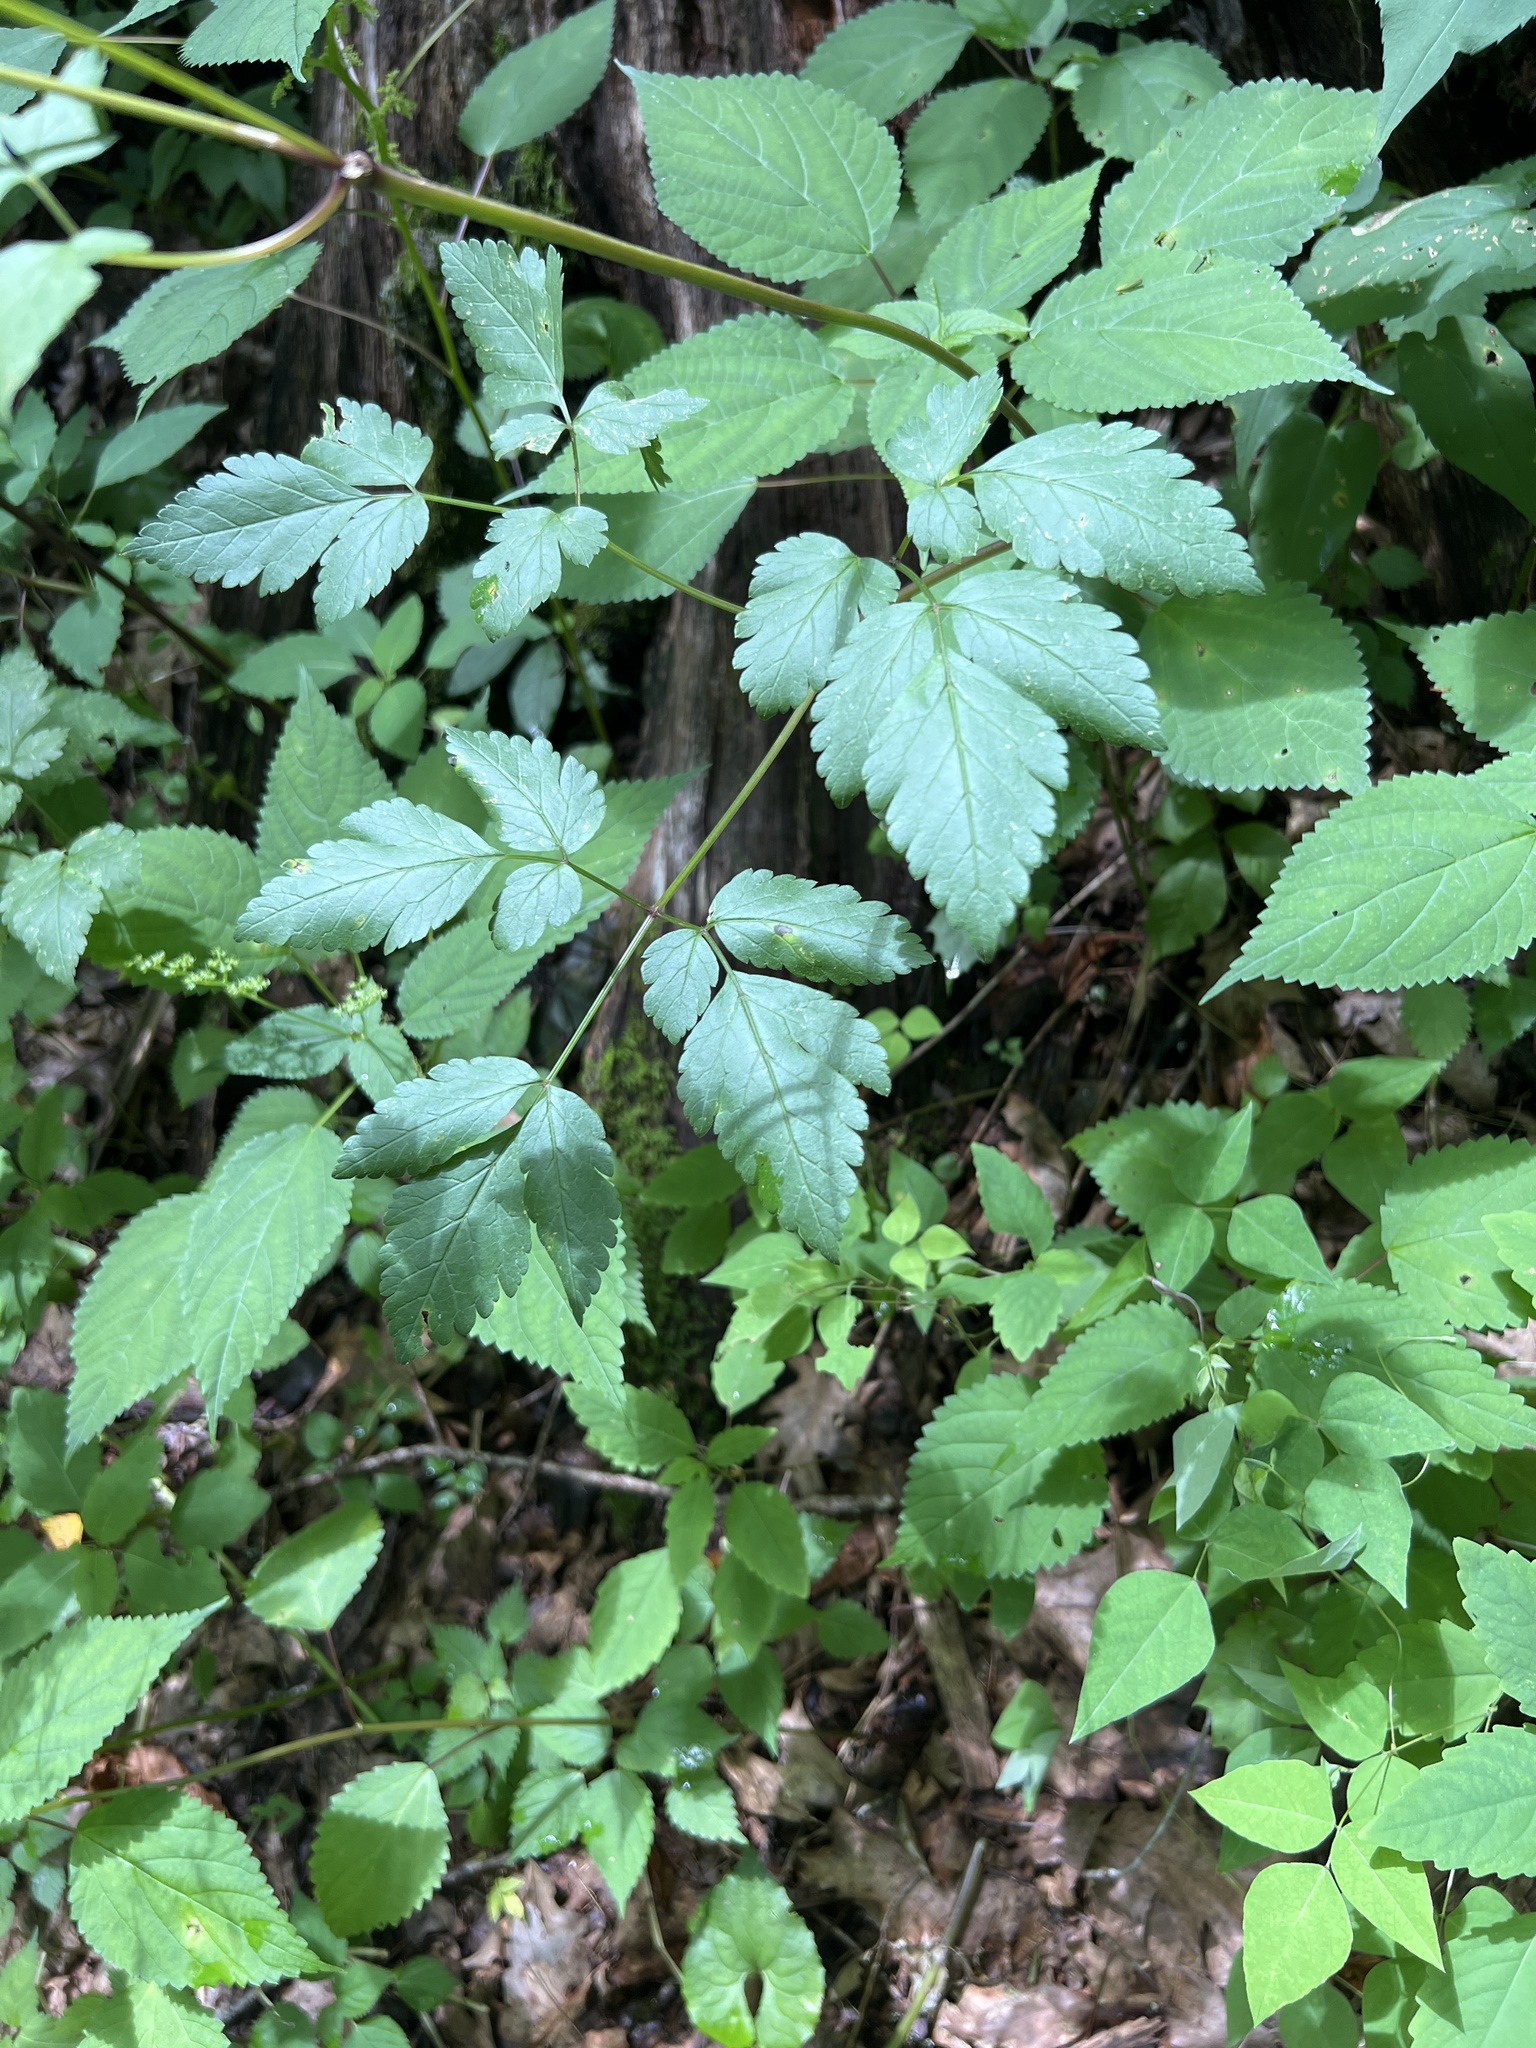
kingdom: Plantae
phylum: Tracheophyta
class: Magnoliopsida
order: Apiales
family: Apiaceae
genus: Osmorhiza
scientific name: Osmorhiza longistylis
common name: Smooth sweet cicely
